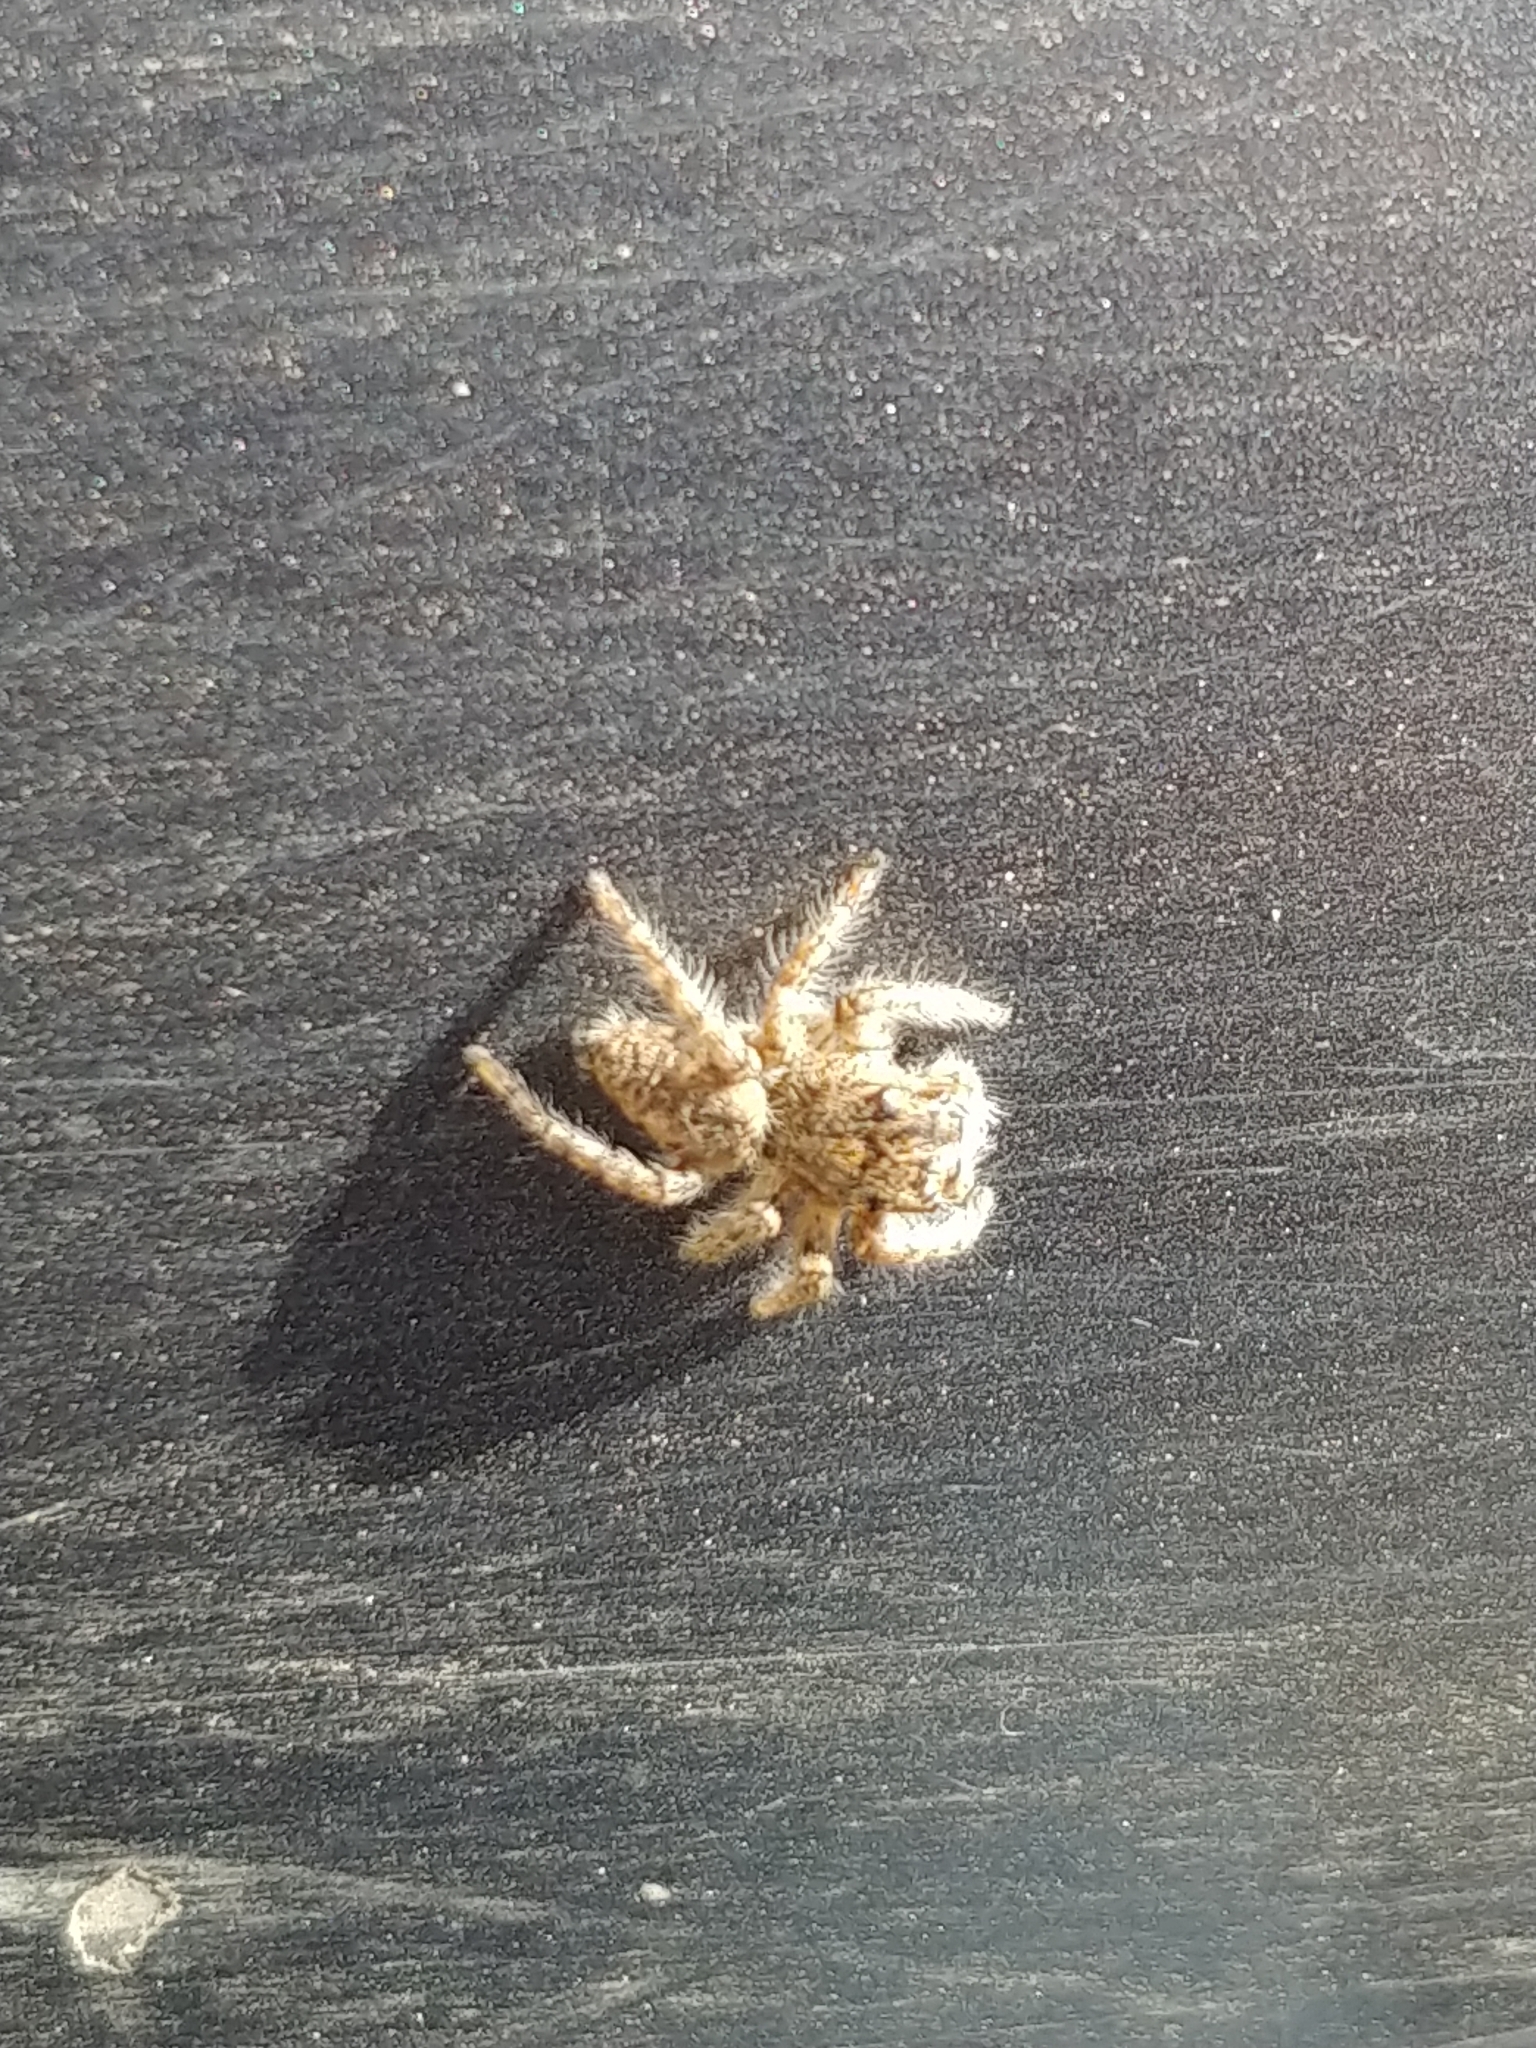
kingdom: Animalia
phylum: Arthropoda
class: Arachnida
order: Araneae
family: Salticidae
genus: Philaeus
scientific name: Philaeus chrysops
